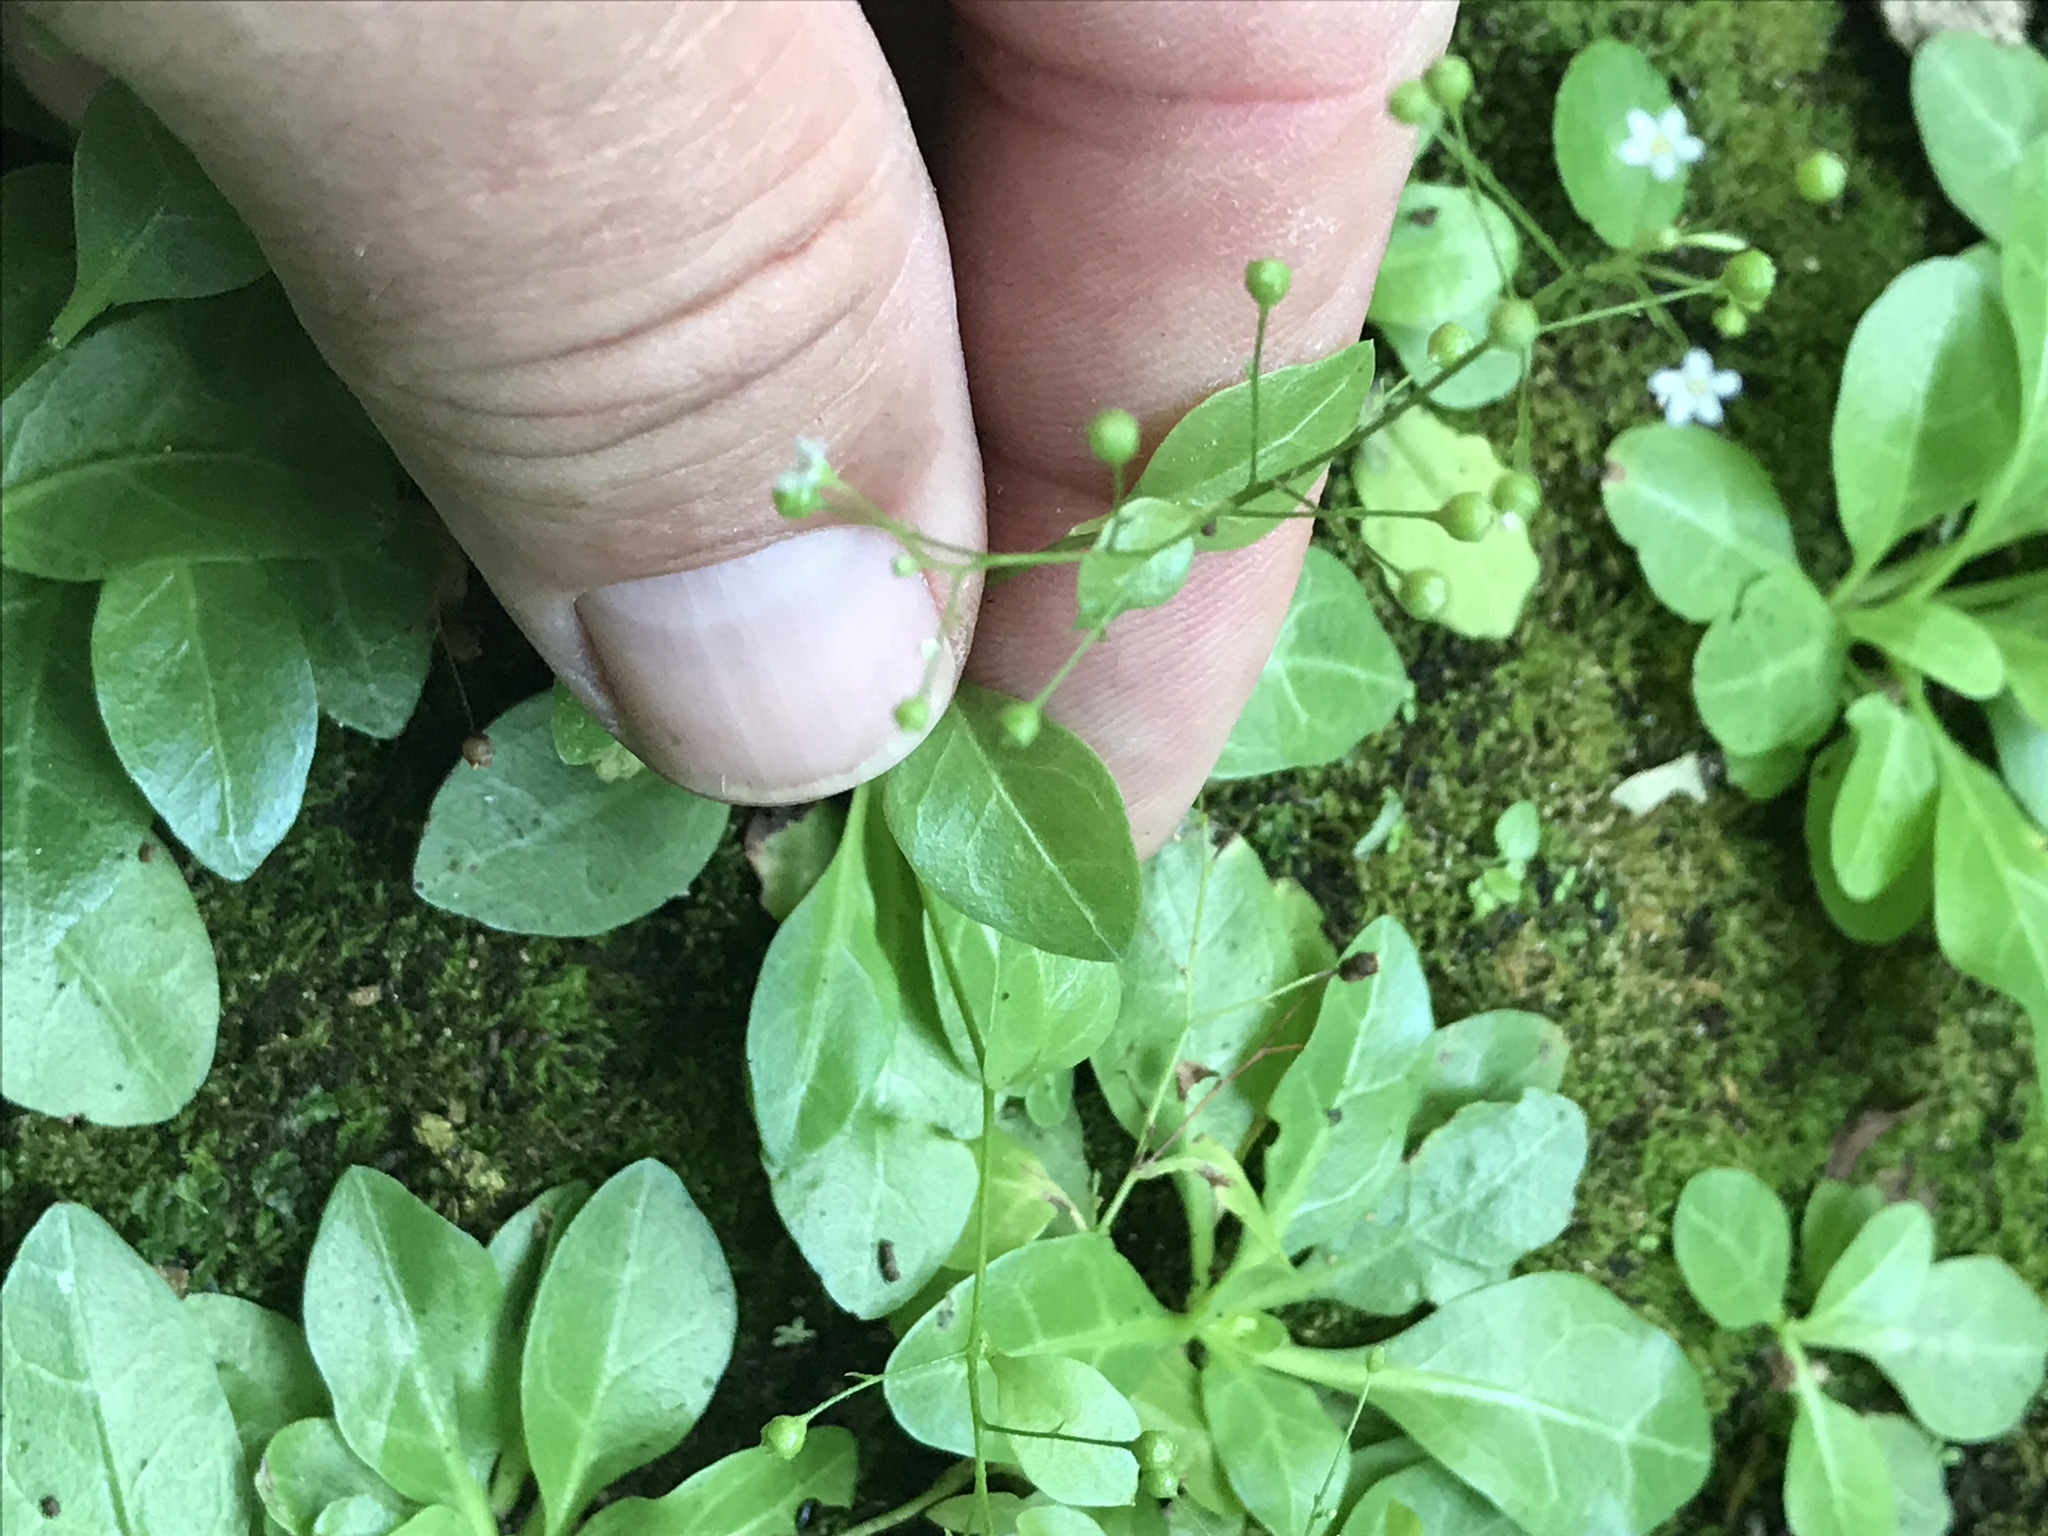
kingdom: Plantae
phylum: Tracheophyta
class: Magnoliopsida
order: Ericales
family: Primulaceae
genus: Samolus
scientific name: Samolus parviflorus
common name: False water pimpernel
